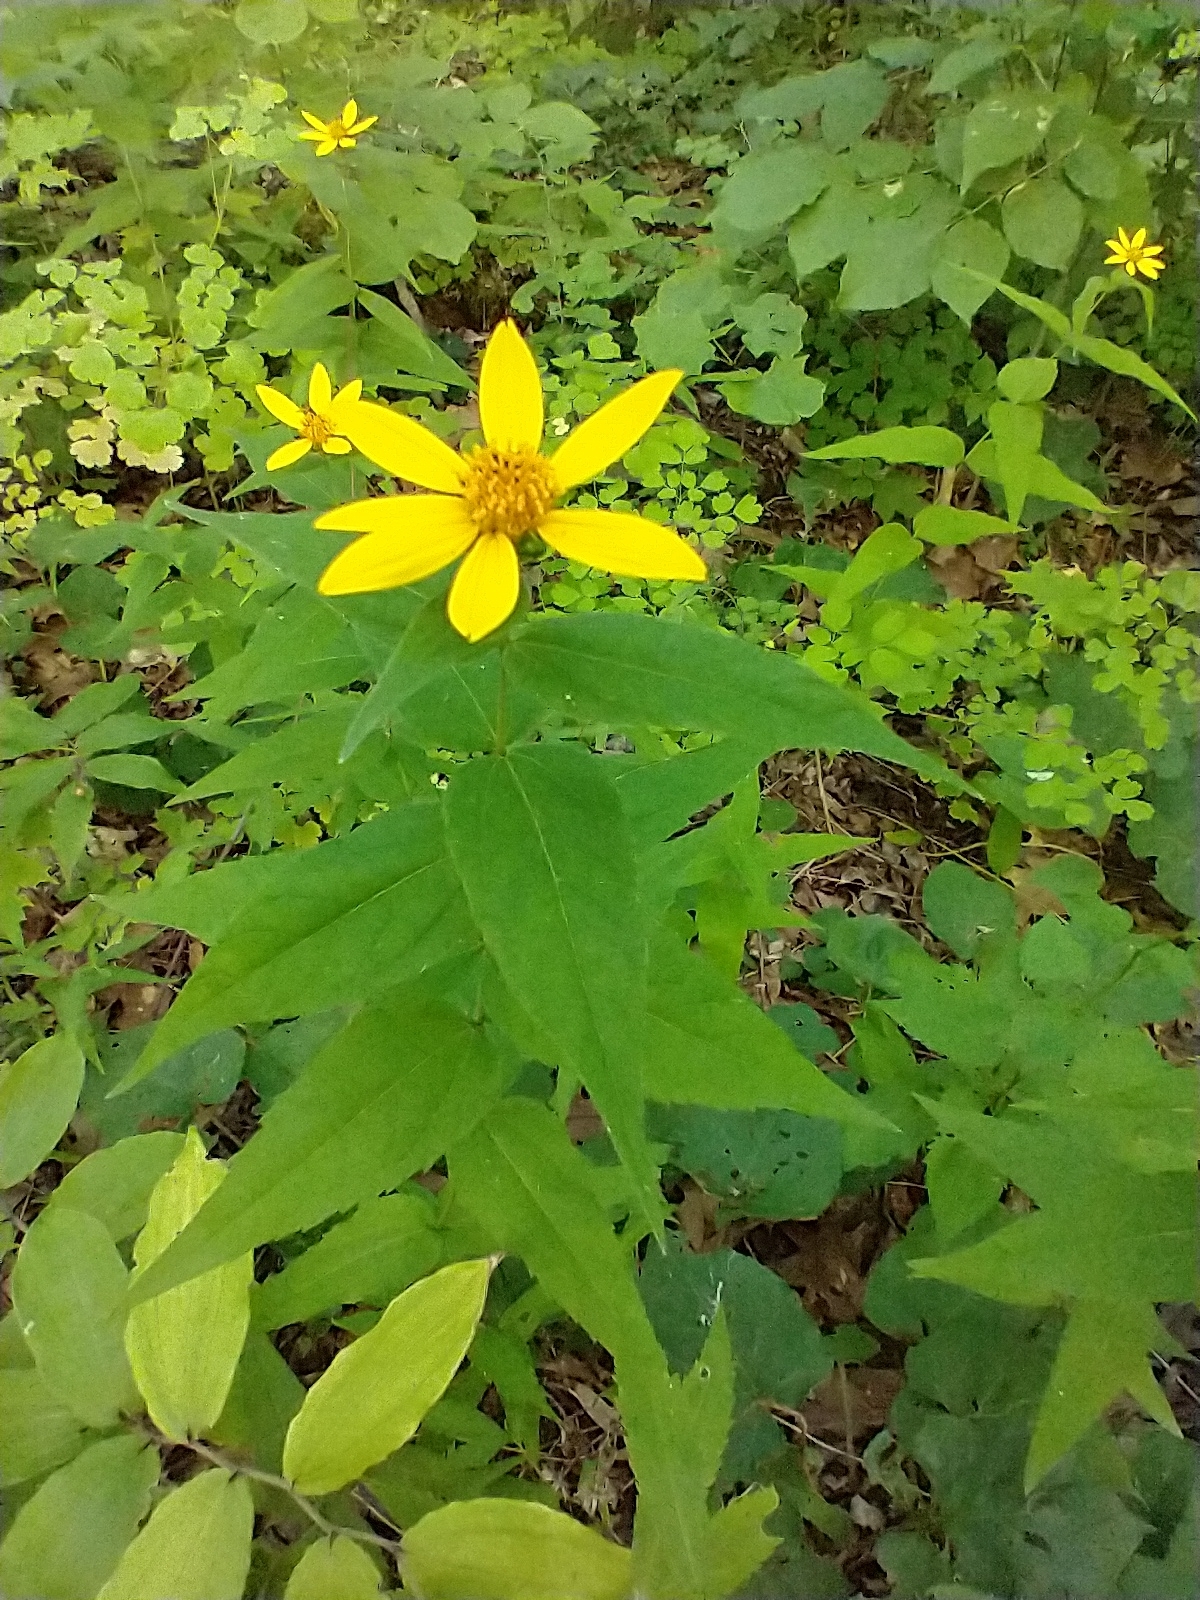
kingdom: Plantae
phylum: Tracheophyta
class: Magnoliopsida
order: Asterales
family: Asteraceae
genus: Helianthus
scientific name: Helianthus divaricatus
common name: Divergent sunflower
